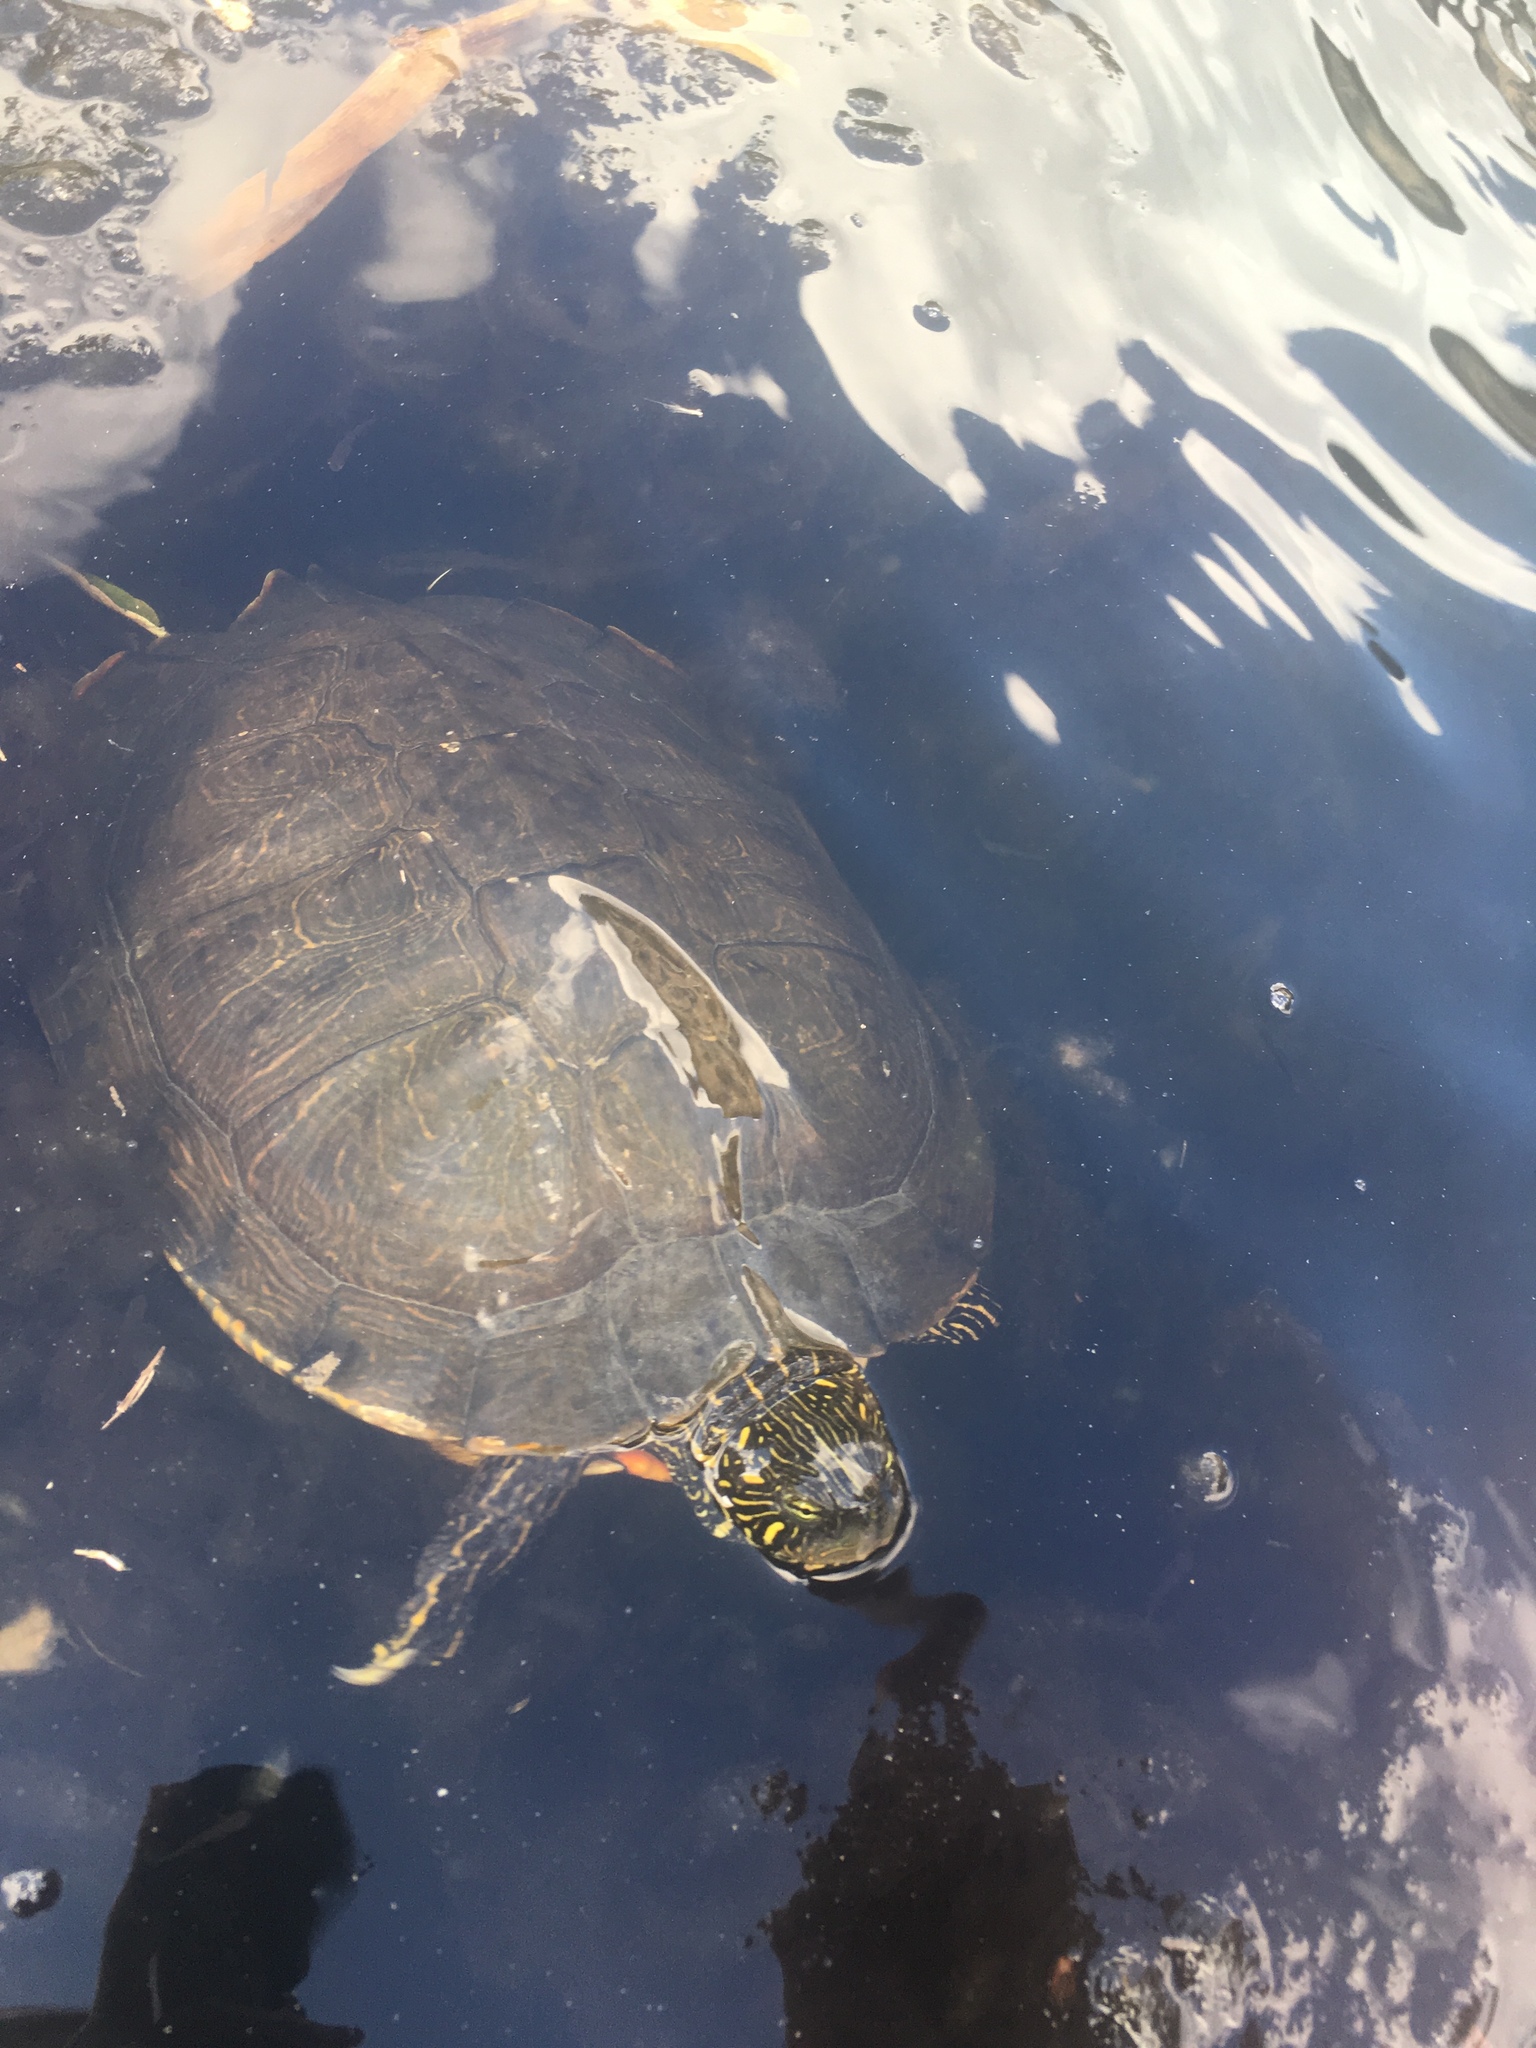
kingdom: Animalia
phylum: Chordata
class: Testudines
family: Emydidae
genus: Pseudemys
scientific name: Pseudemys texana
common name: Texas river cooter
